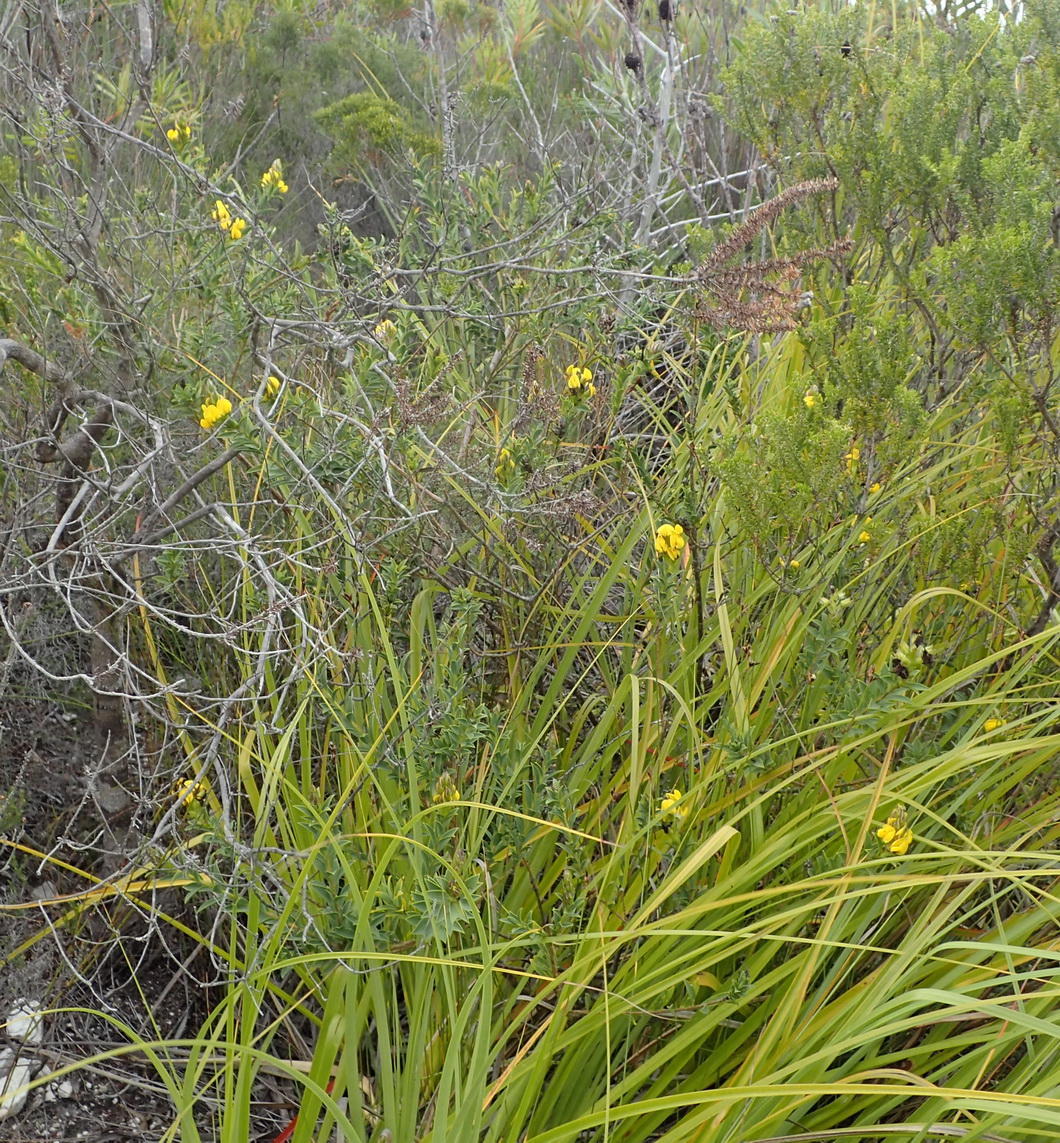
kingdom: Plantae
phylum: Tracheophyta
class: Magnoliopsida
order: Fabales
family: Fabaceae
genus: Liparia
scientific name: Liparia hirsuta
